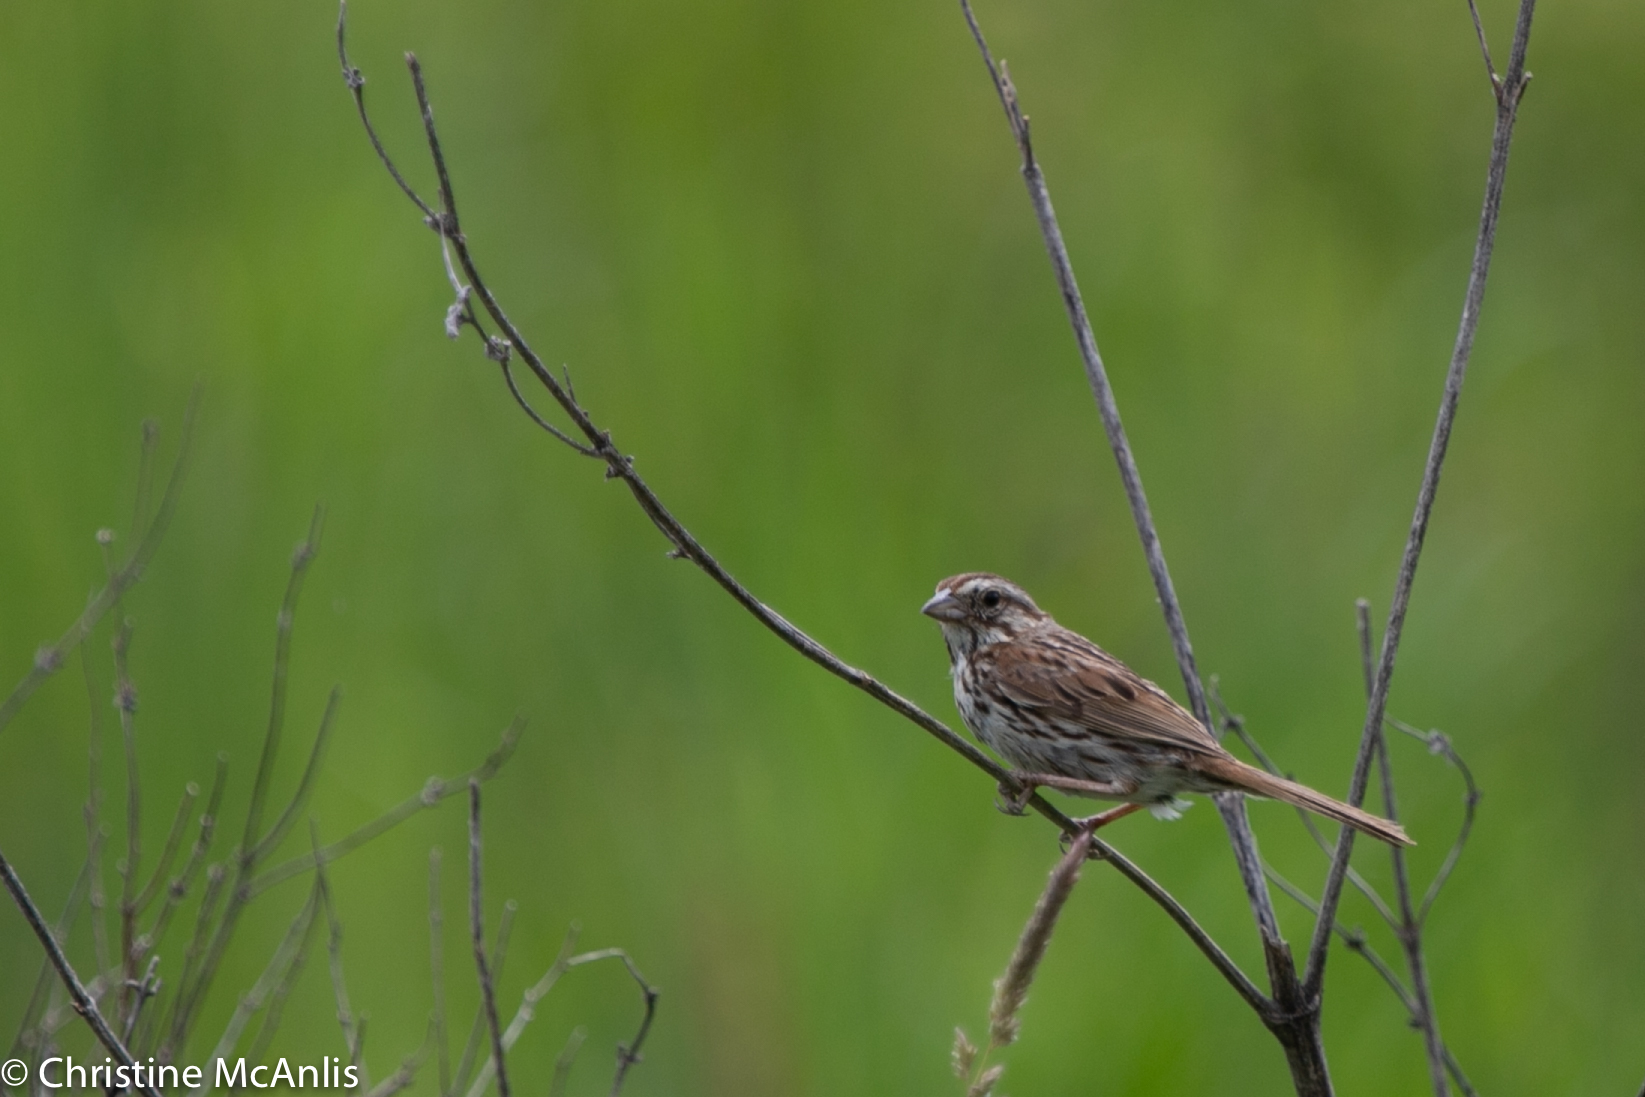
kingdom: Animalia
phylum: Chordata
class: Aves
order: Passeriformes
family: Passerellidae
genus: Melospiza
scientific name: Melospiza melodia
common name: Song sparrow
